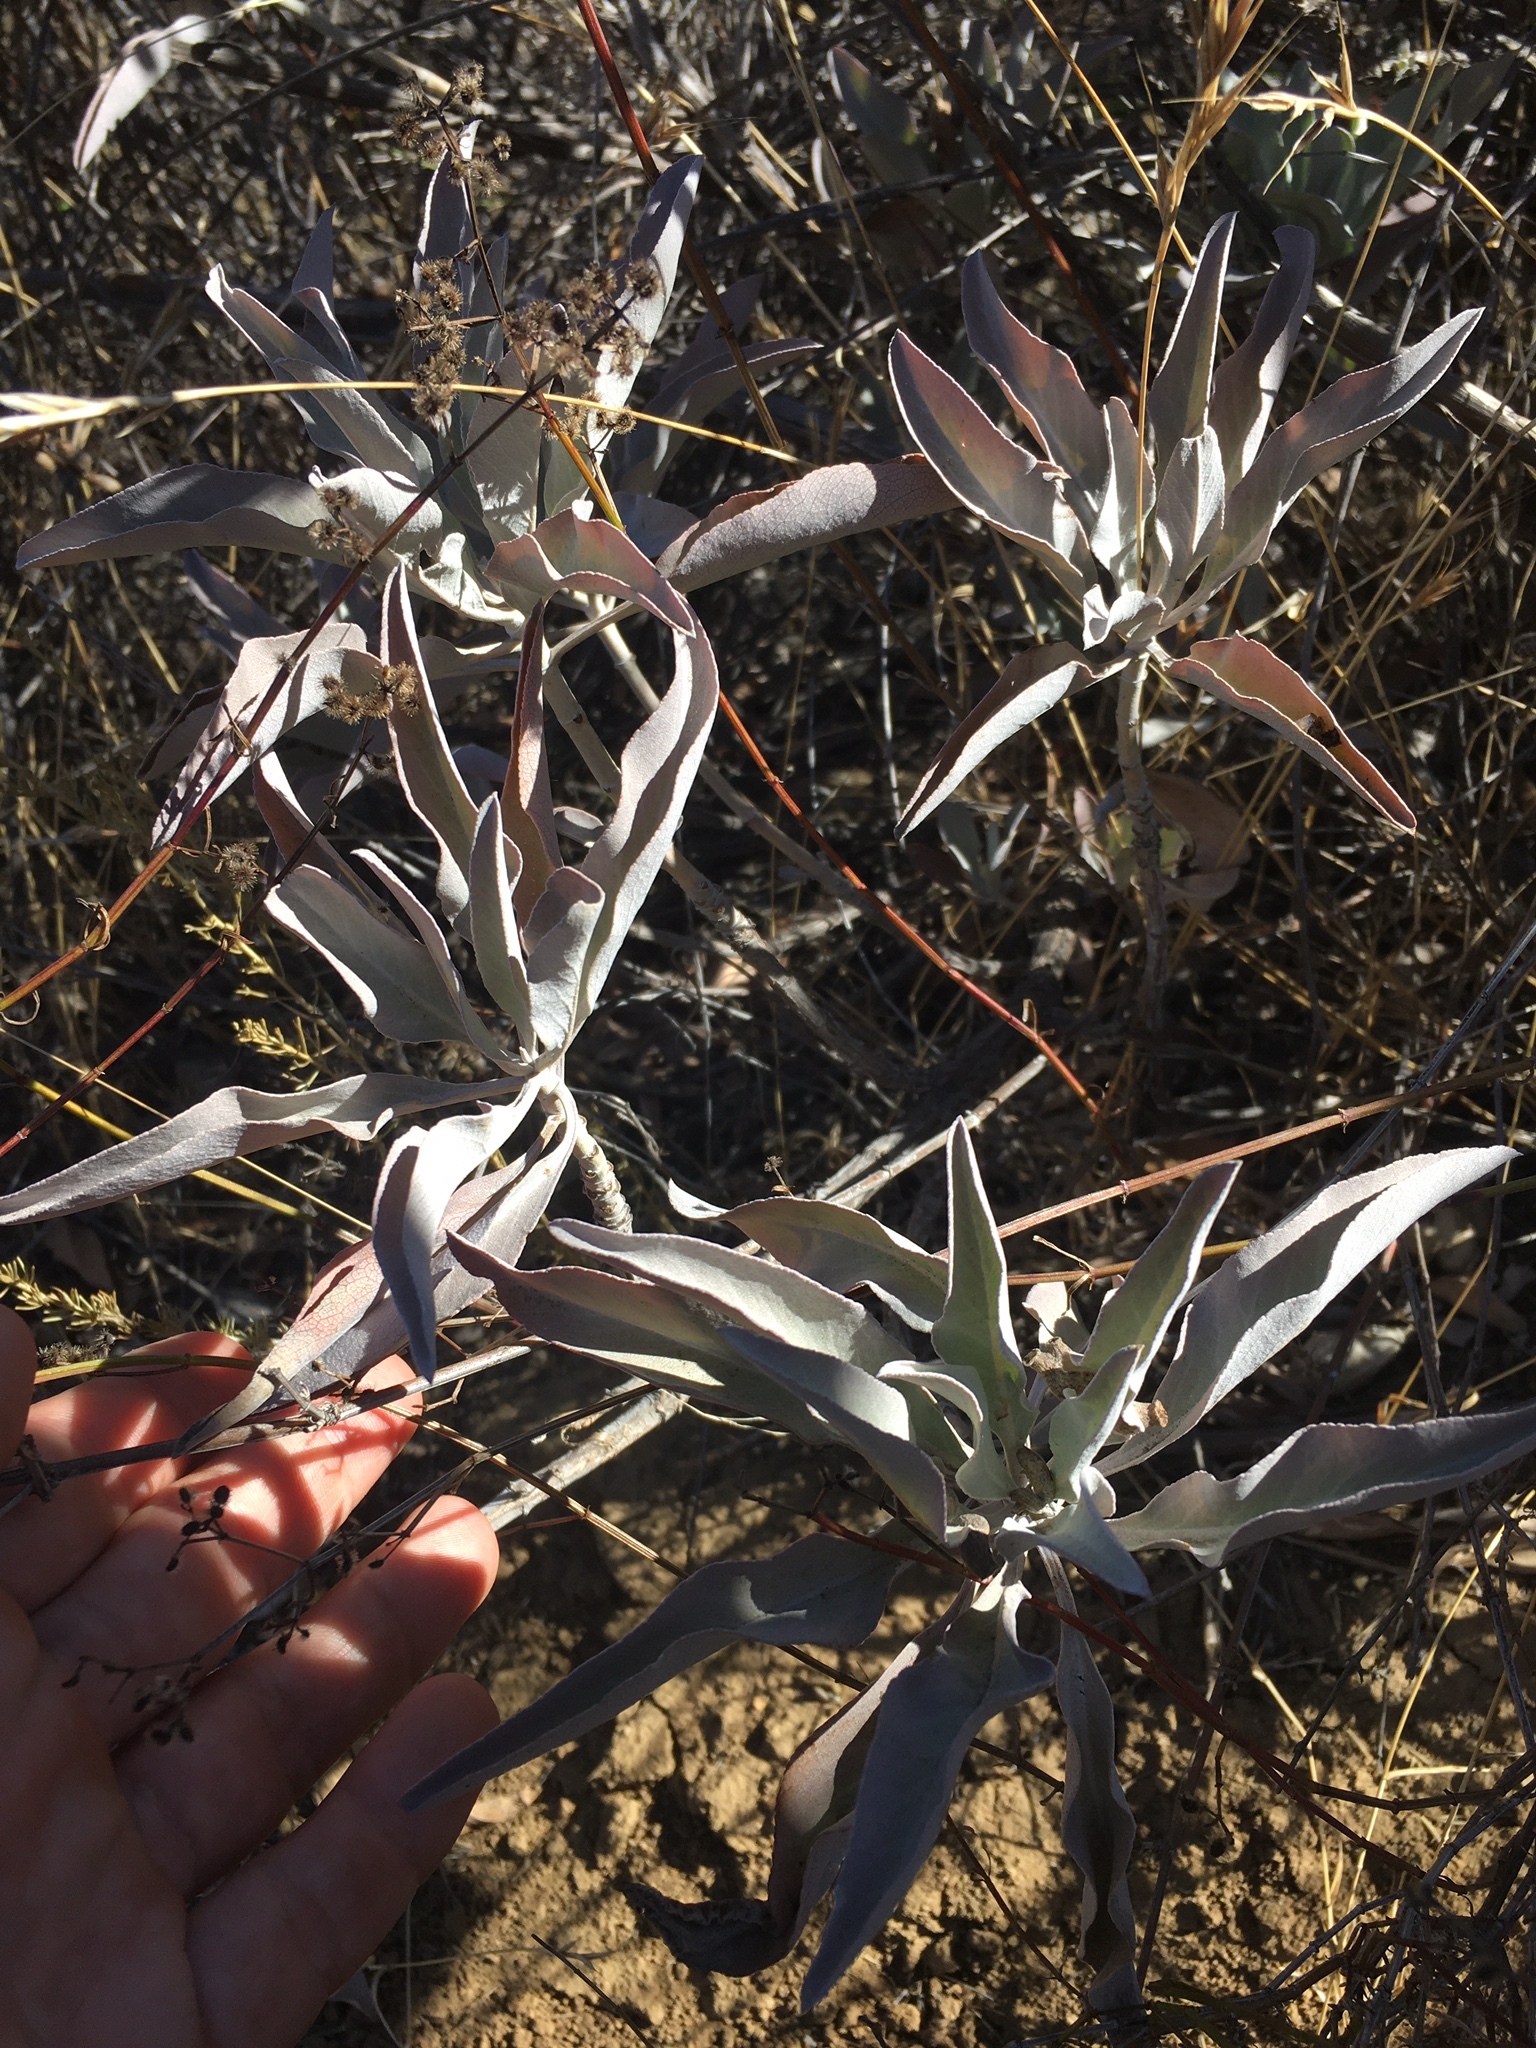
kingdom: Plantae
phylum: Tracheophyta
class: Magnoliopsida
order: Lamiales
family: Lamiaceae
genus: Salvia
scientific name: Salvia apiana
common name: White sage
